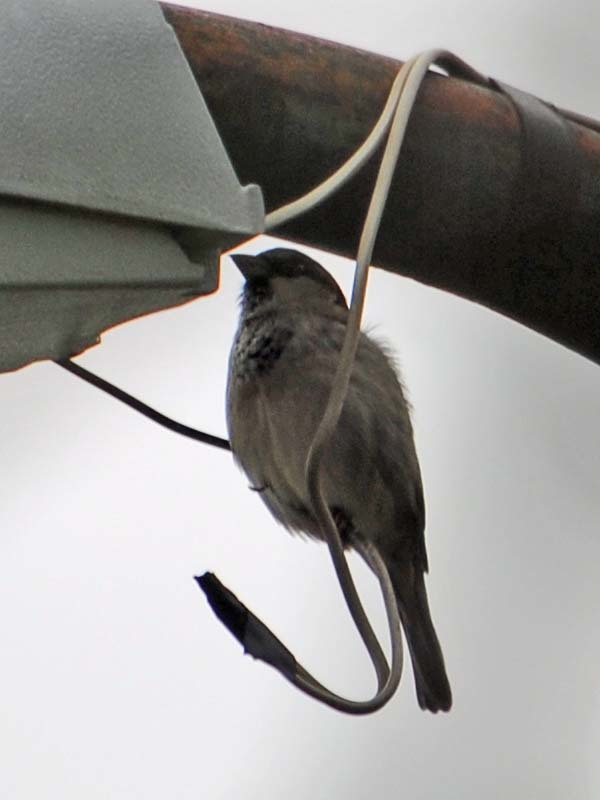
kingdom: Animalia
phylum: Chordata
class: Aves
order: Passeriformes
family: Passeridae
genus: Passer
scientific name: Passer domesticus
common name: House sparrow
